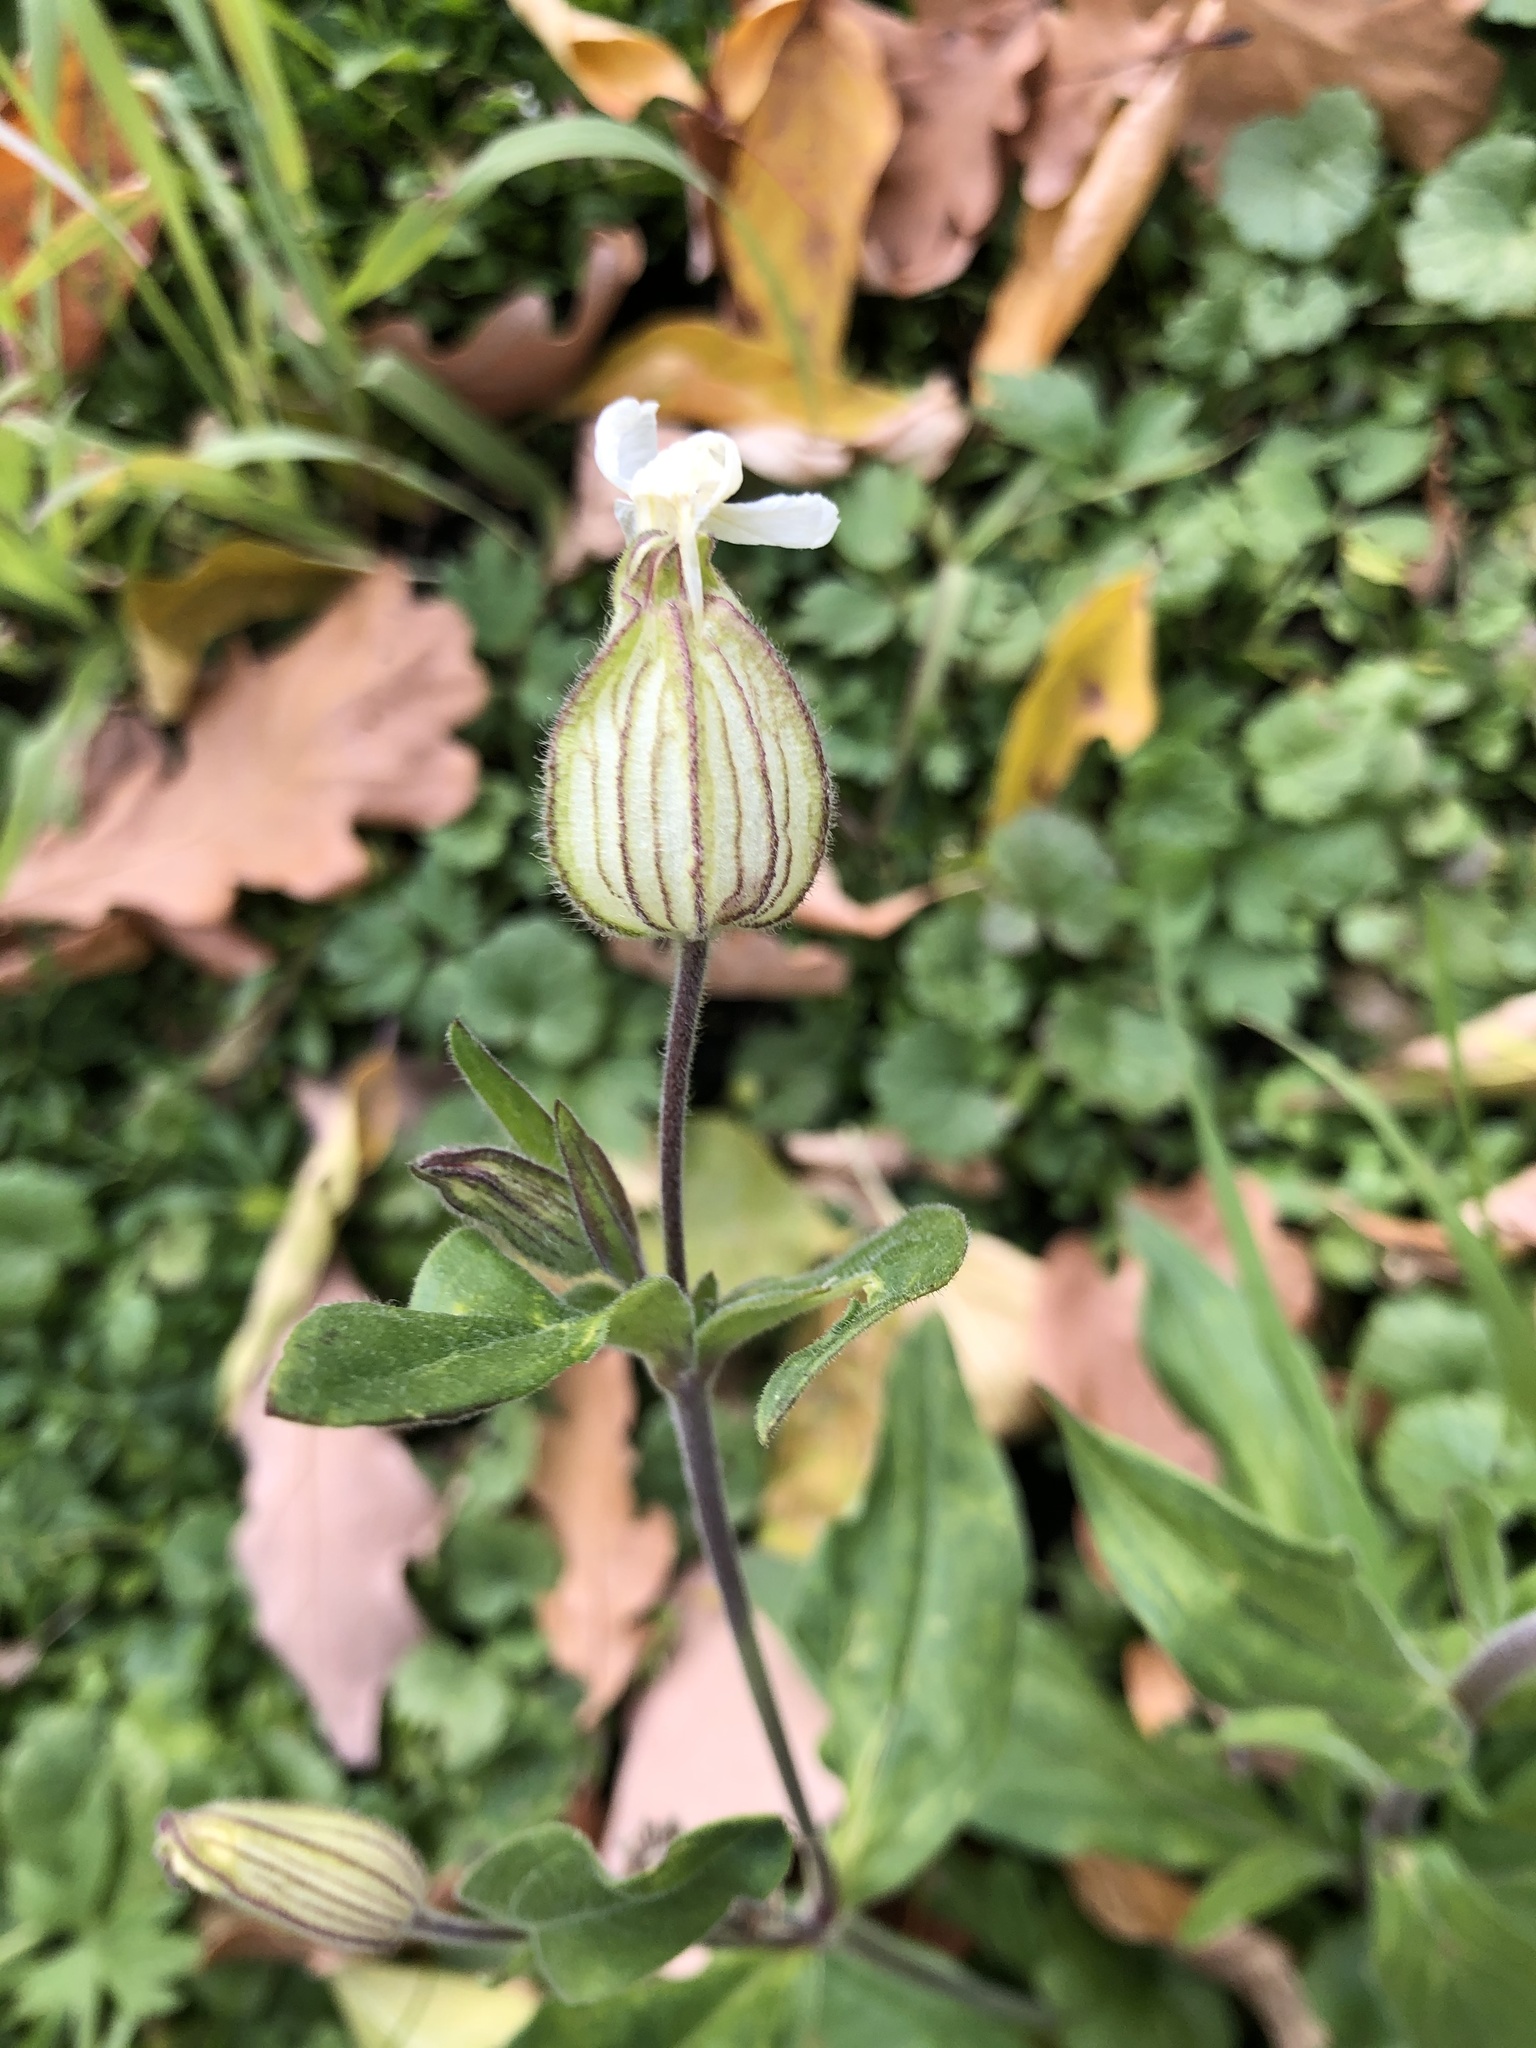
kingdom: Plantae
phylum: Tracheophyta
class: Magnoliopsida
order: Caryophyllales
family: Caryophyllaceae
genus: Silene
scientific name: Silene latifolia
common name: White campion
